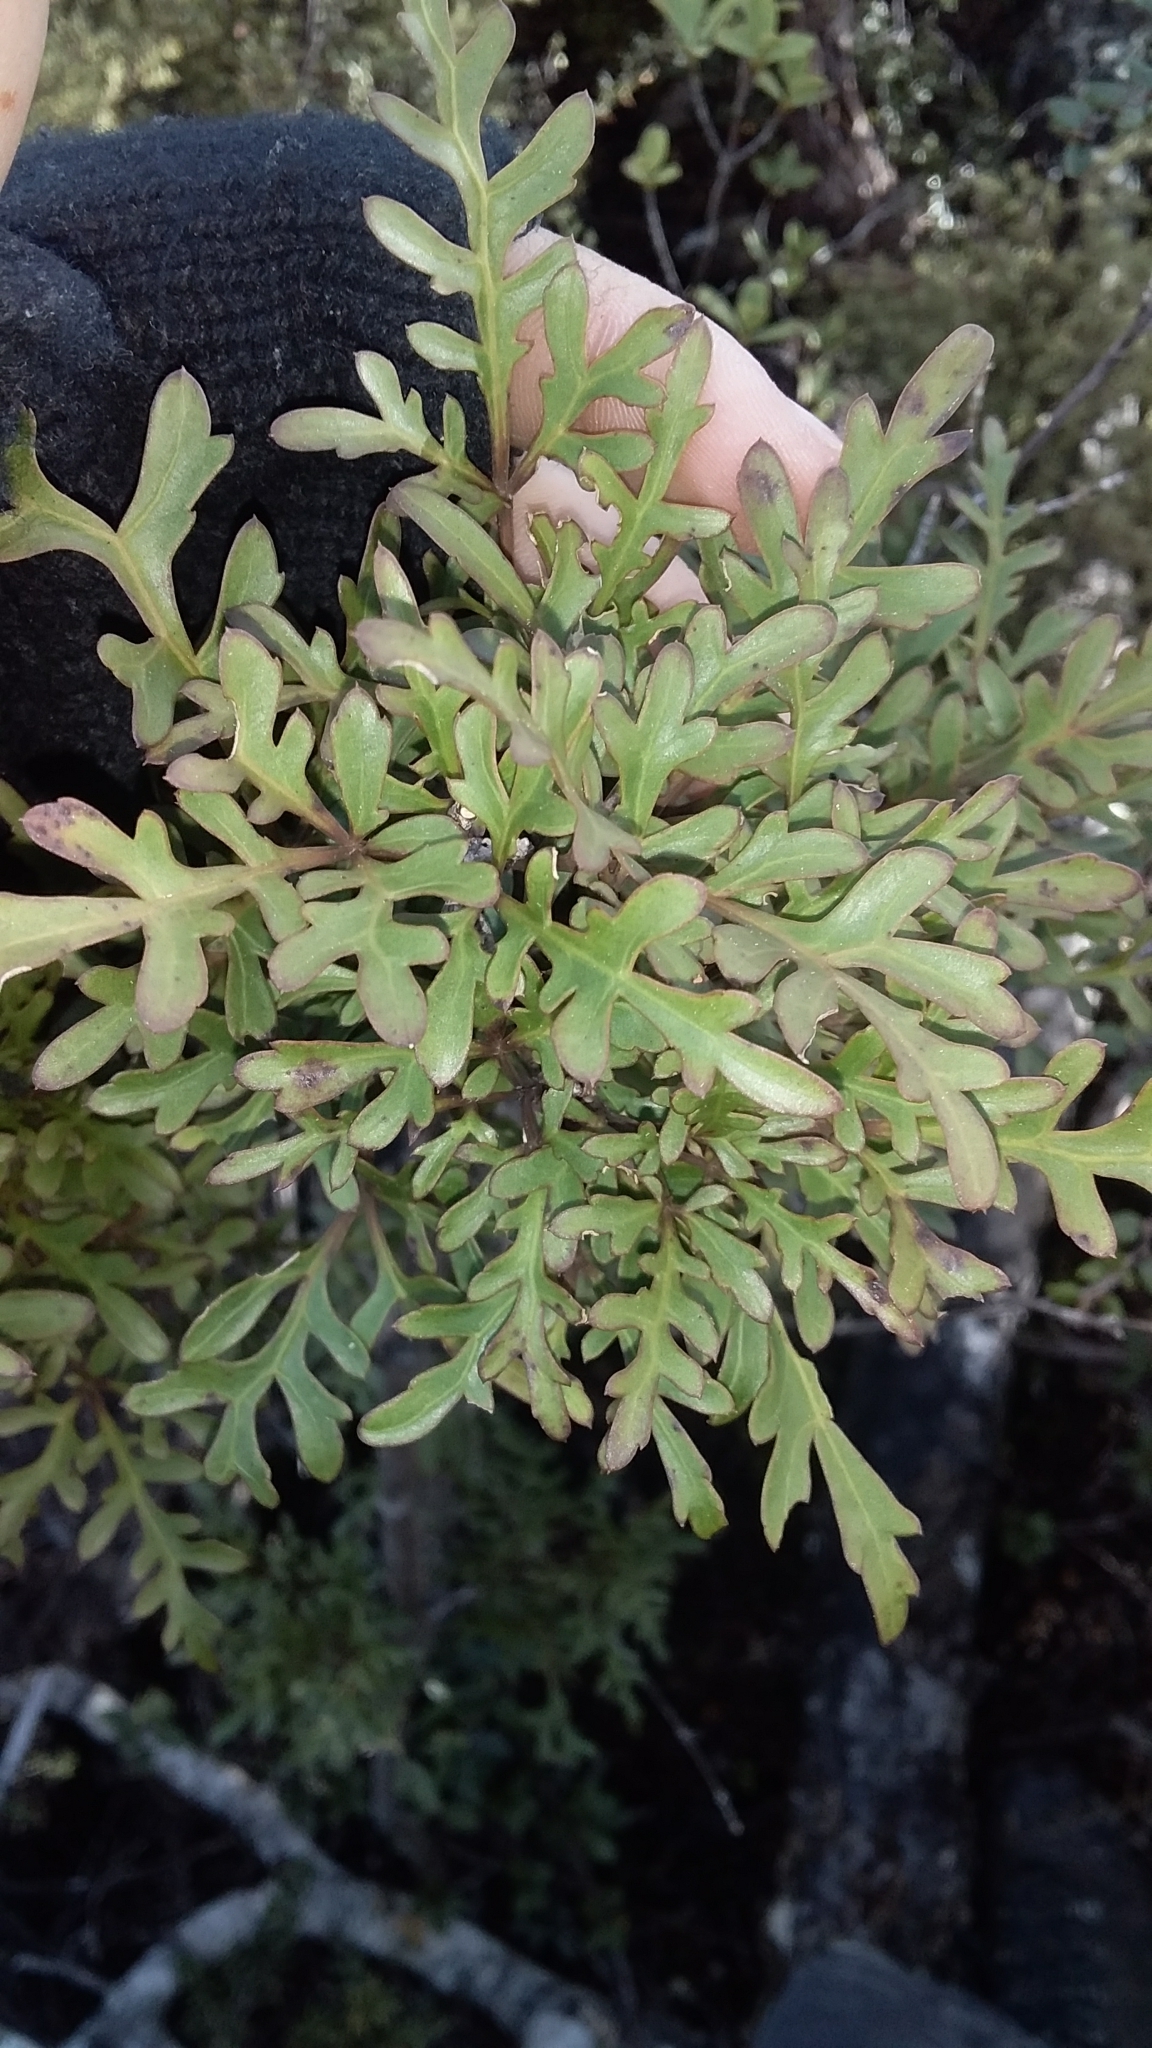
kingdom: Plantae
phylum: Tracheophyta
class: Magnoliopsida
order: Apiales
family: Araliaceae
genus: Raukaua
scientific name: Raukaua simplex
